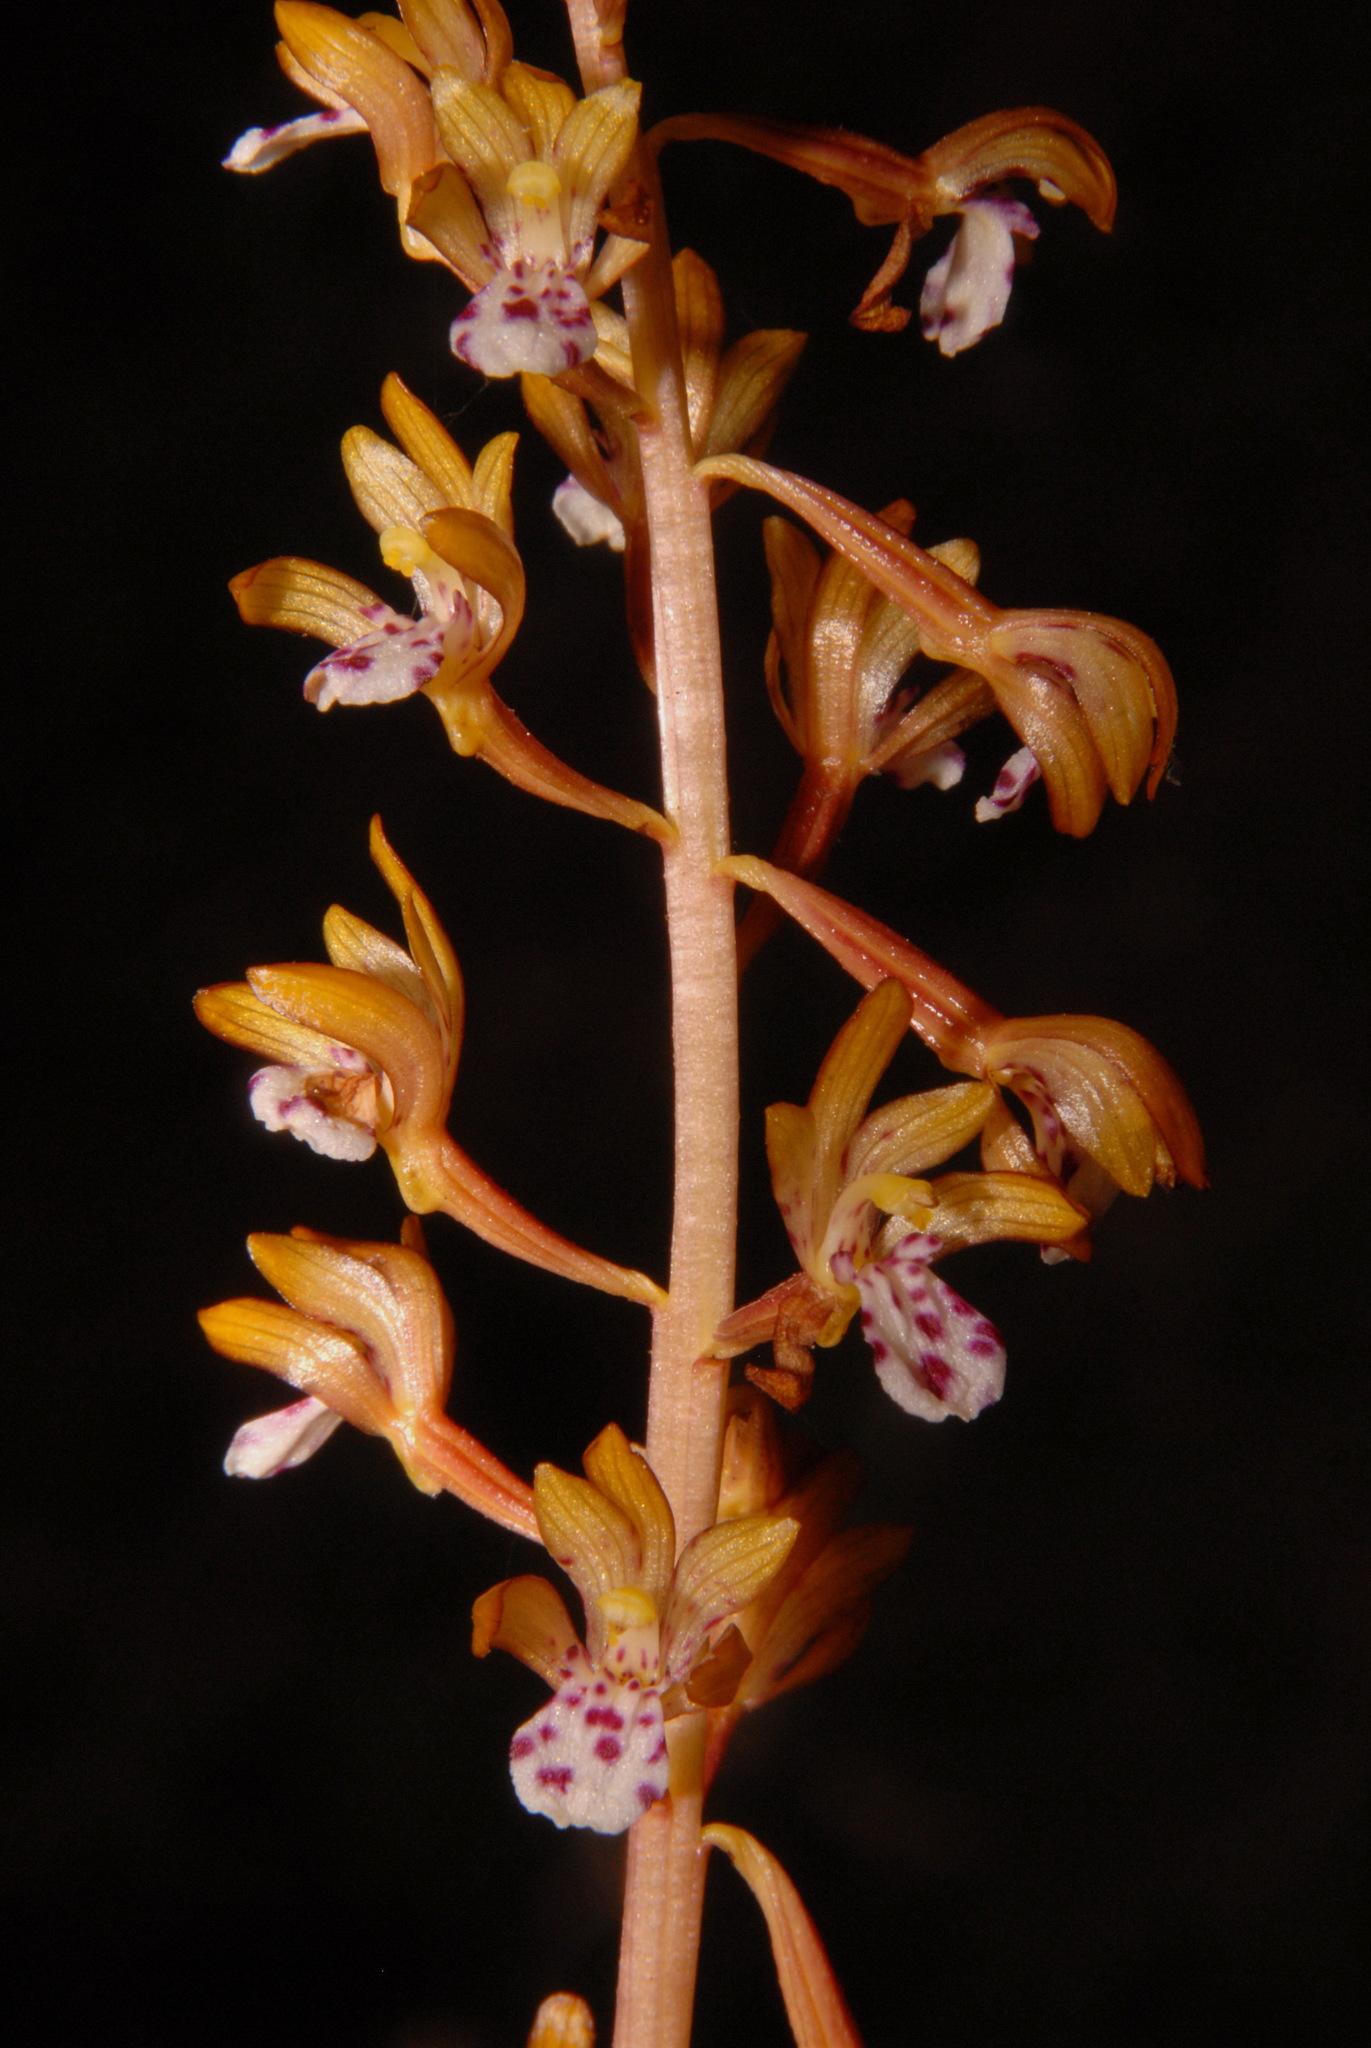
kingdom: Plantae
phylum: Tracheophyta
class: Liliopsida
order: Asparagales
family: Orchidaceae
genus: Corallorhiza
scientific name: Corallorhiza maculata
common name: Spotted coralroot
